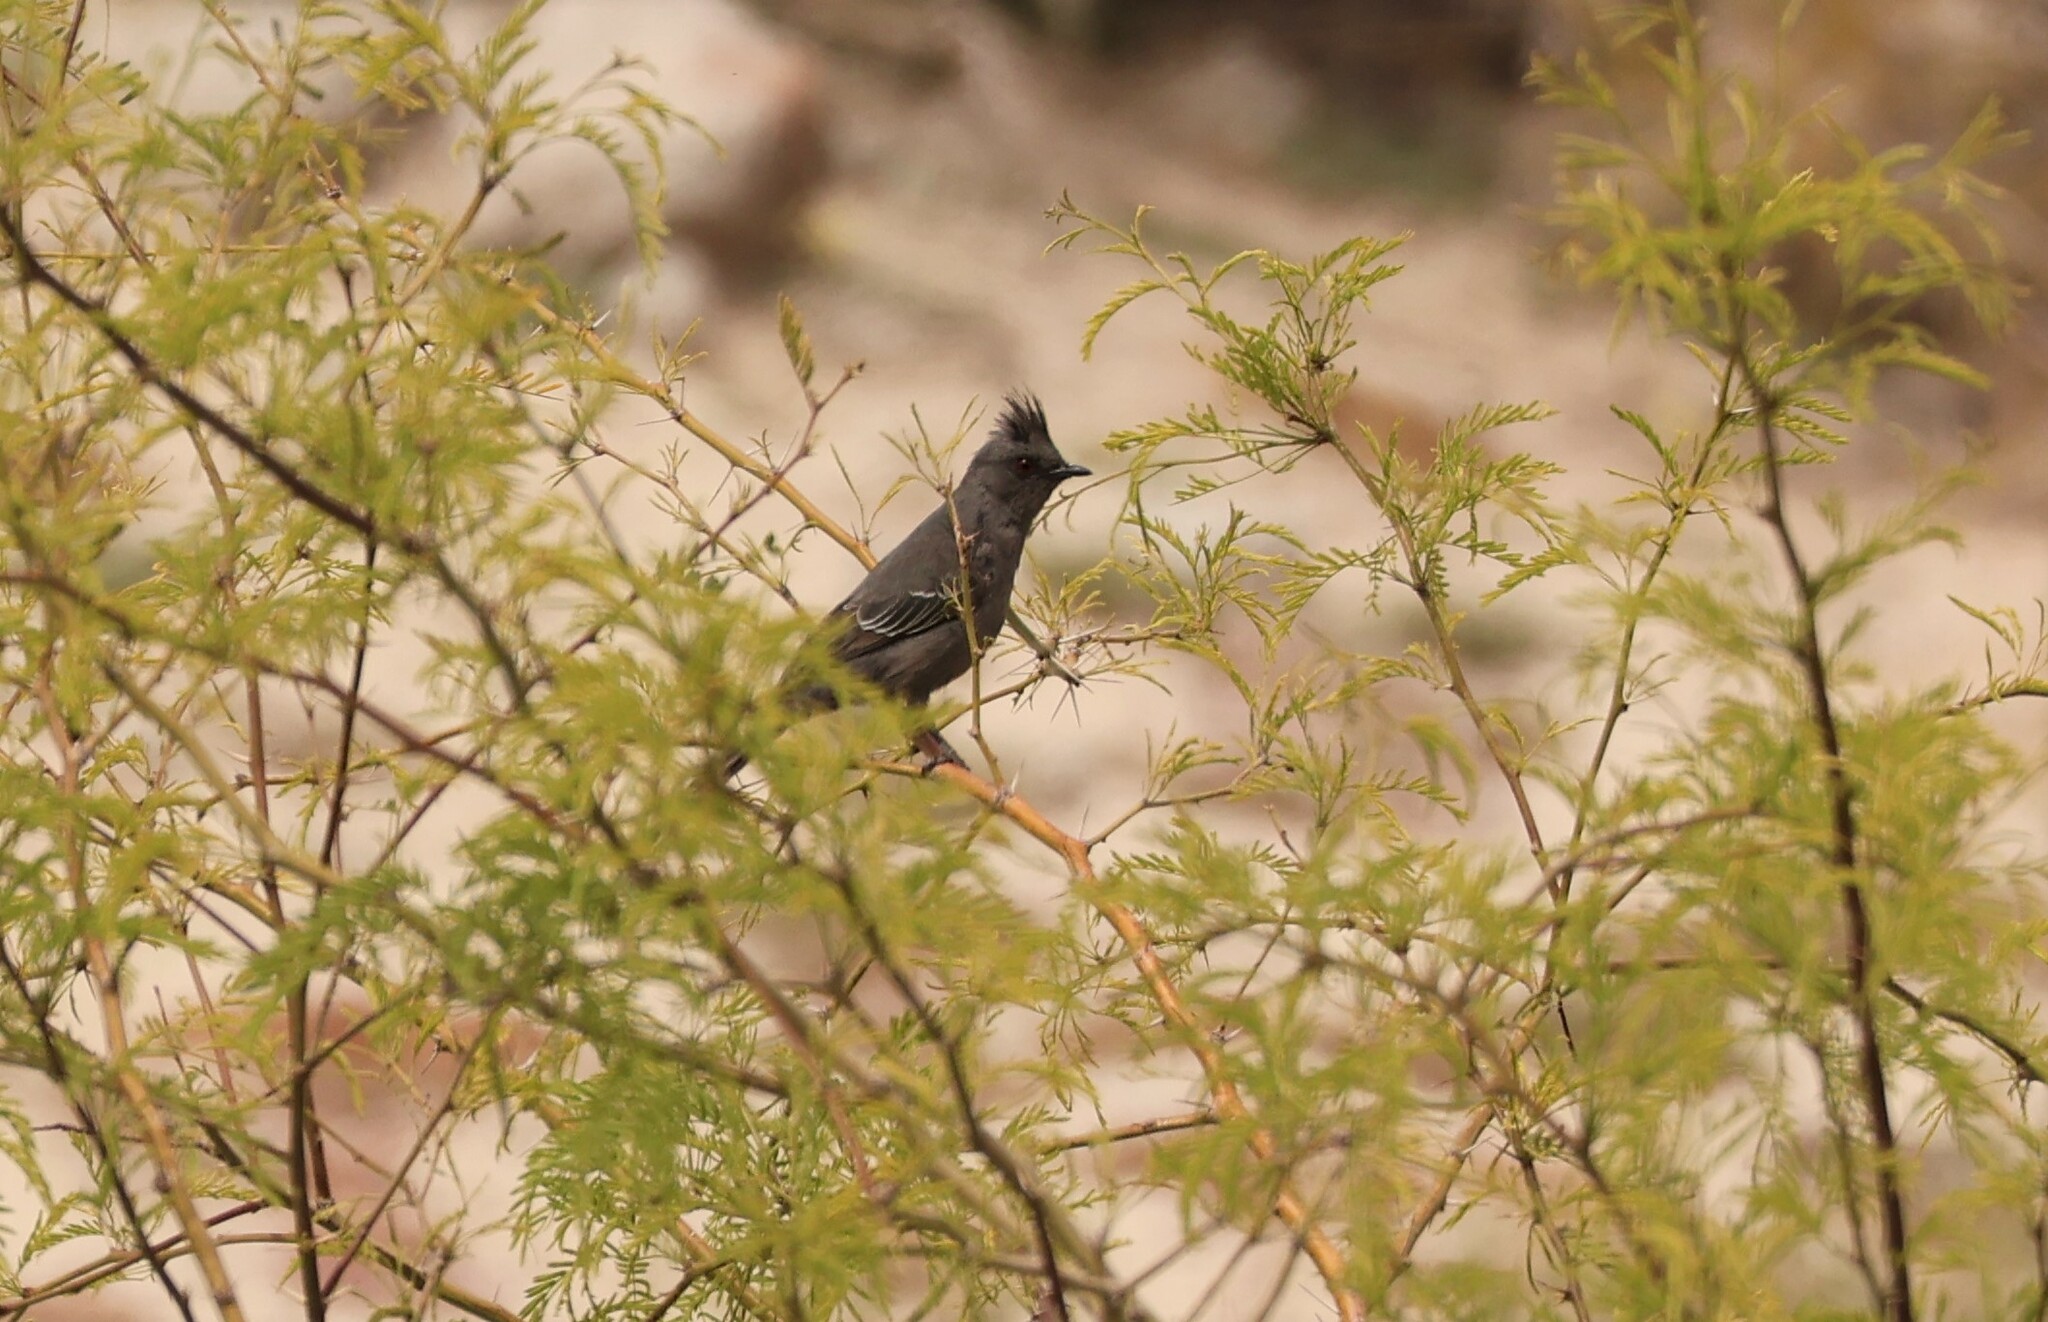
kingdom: Animalia
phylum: Chordata
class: Aves
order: Passeriformes
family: Ptilogonatidae
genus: Phainopepla
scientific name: Phainopepla nitens
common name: Phainopepla
